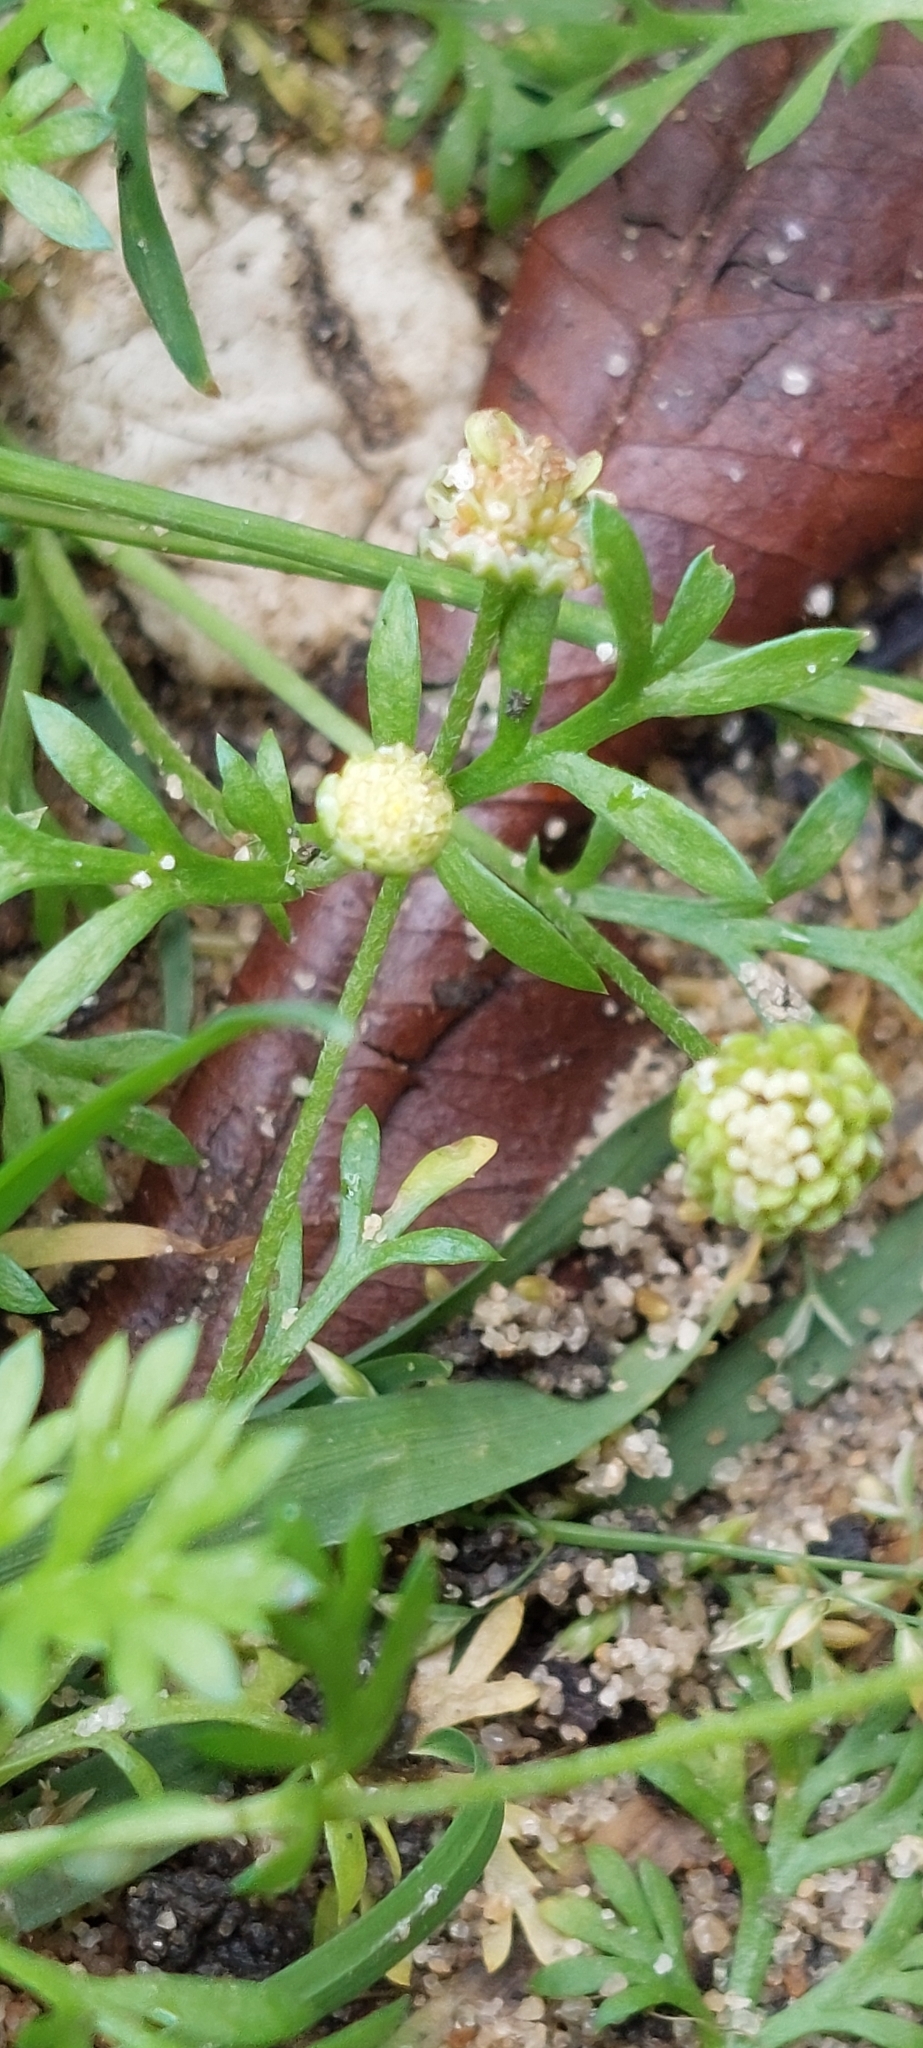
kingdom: Plantae
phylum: Tracheophyta
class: Magnoliopsida
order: Asterales
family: Asteraceae
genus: Cotula
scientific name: Cotula australis
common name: Australian waterbuttons
